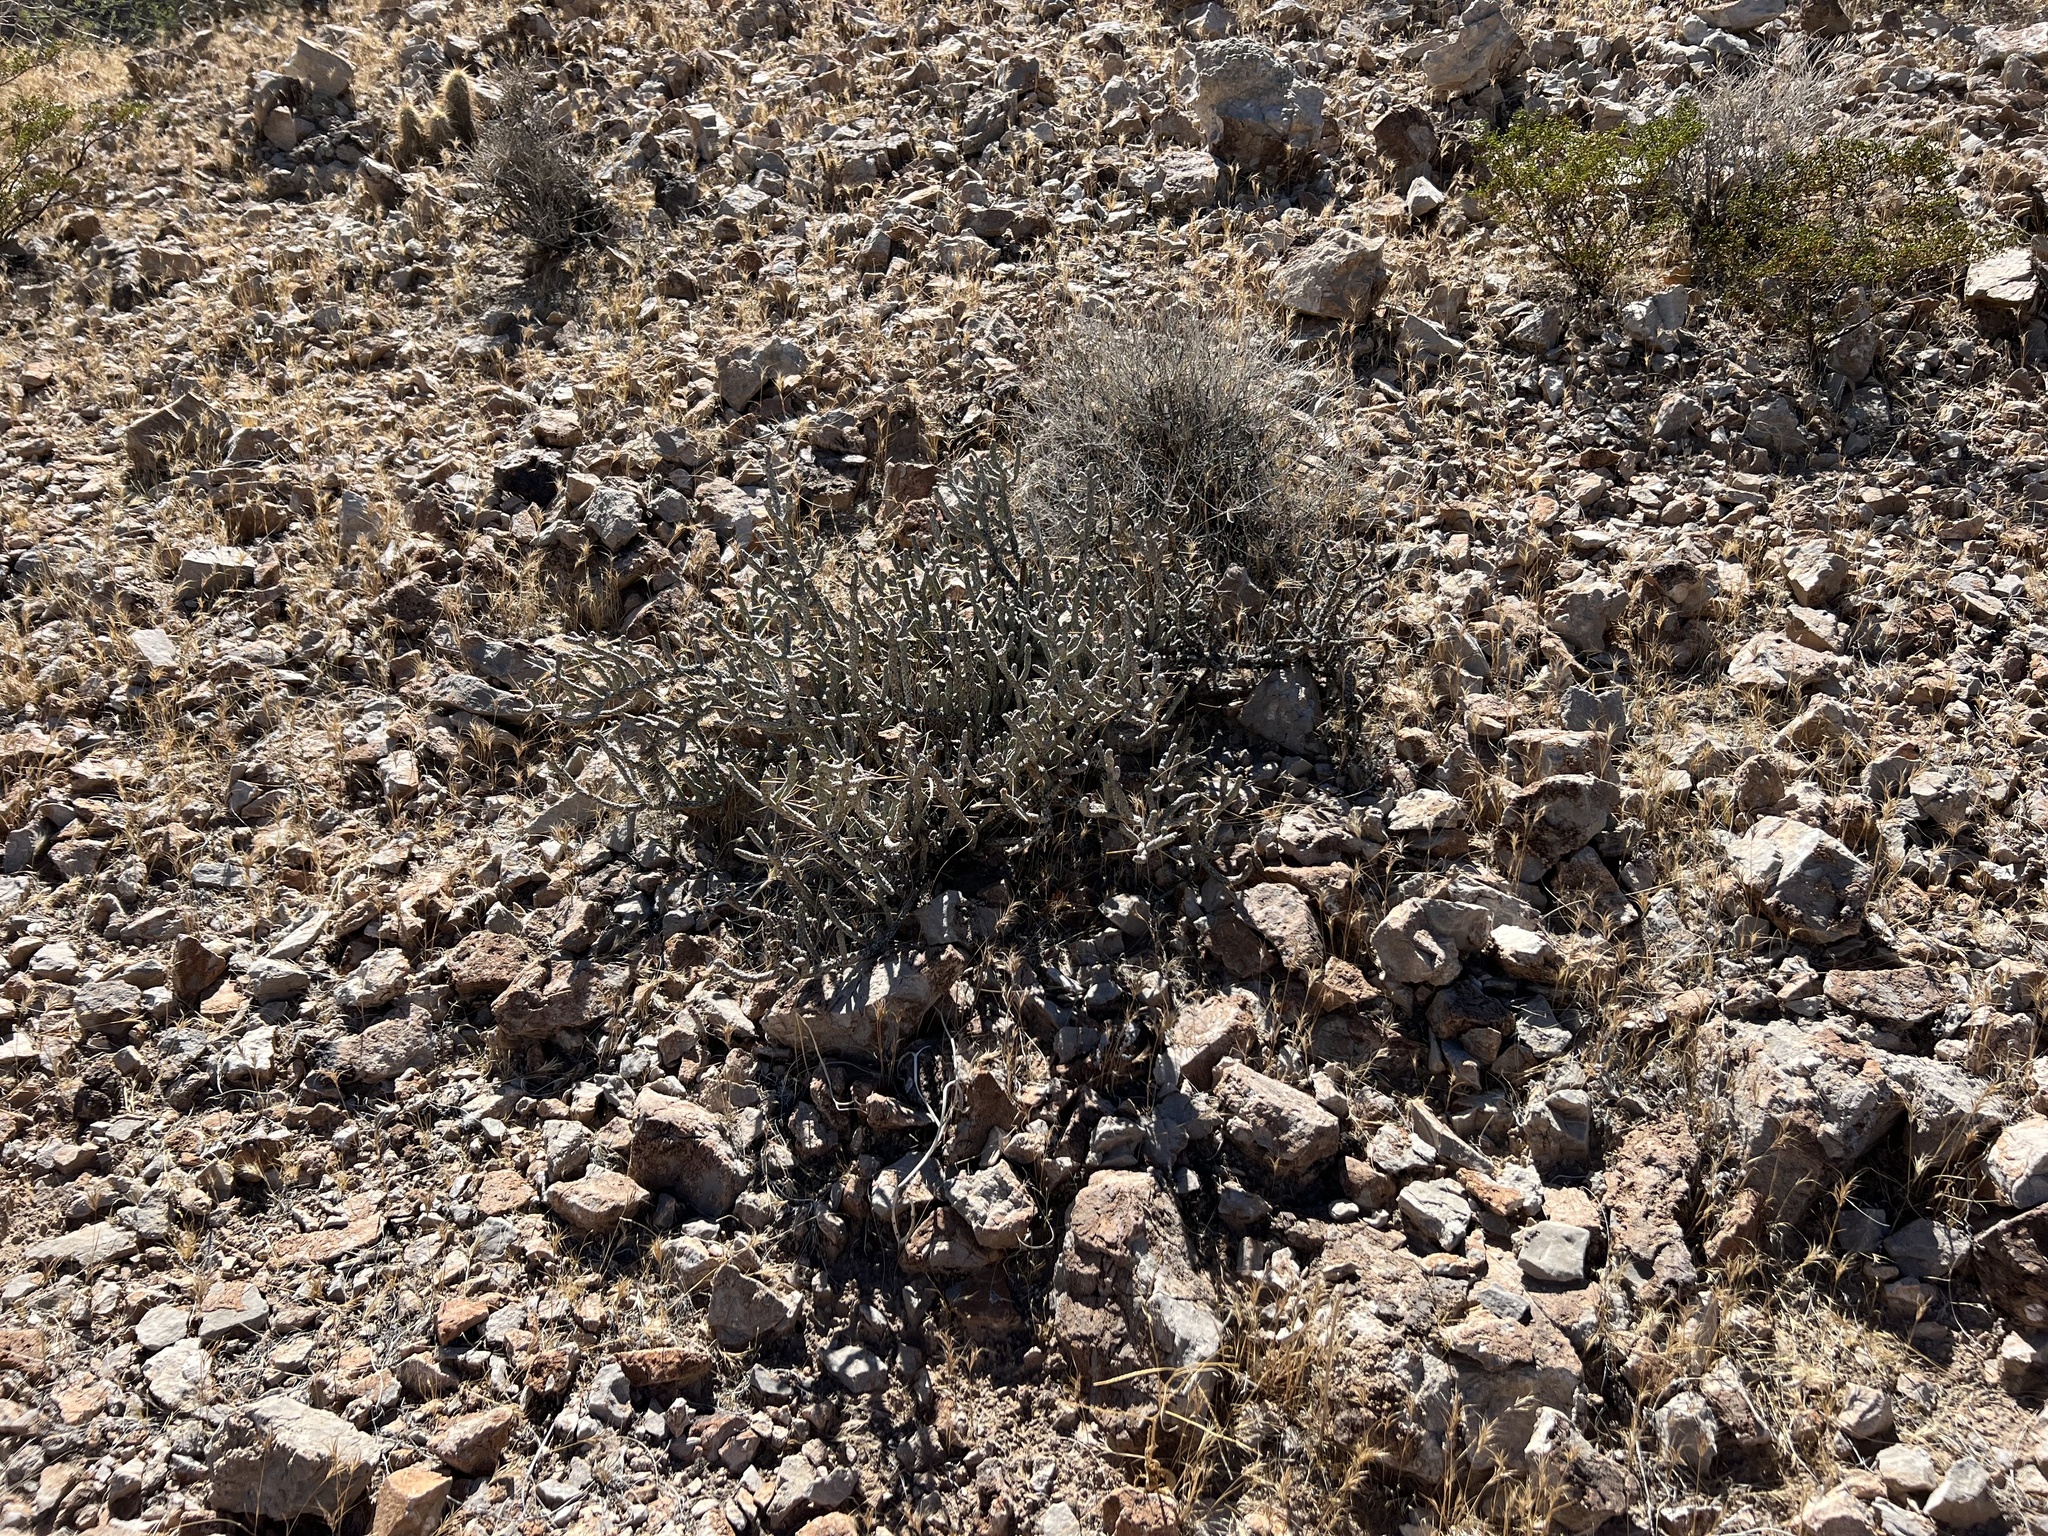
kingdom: Plantae
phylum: Tracheophyta
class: Magnoliopsida
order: Caryophyllales
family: Cactaceae
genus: Cylindropuntia
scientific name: Cylindropuntia ramosissima
